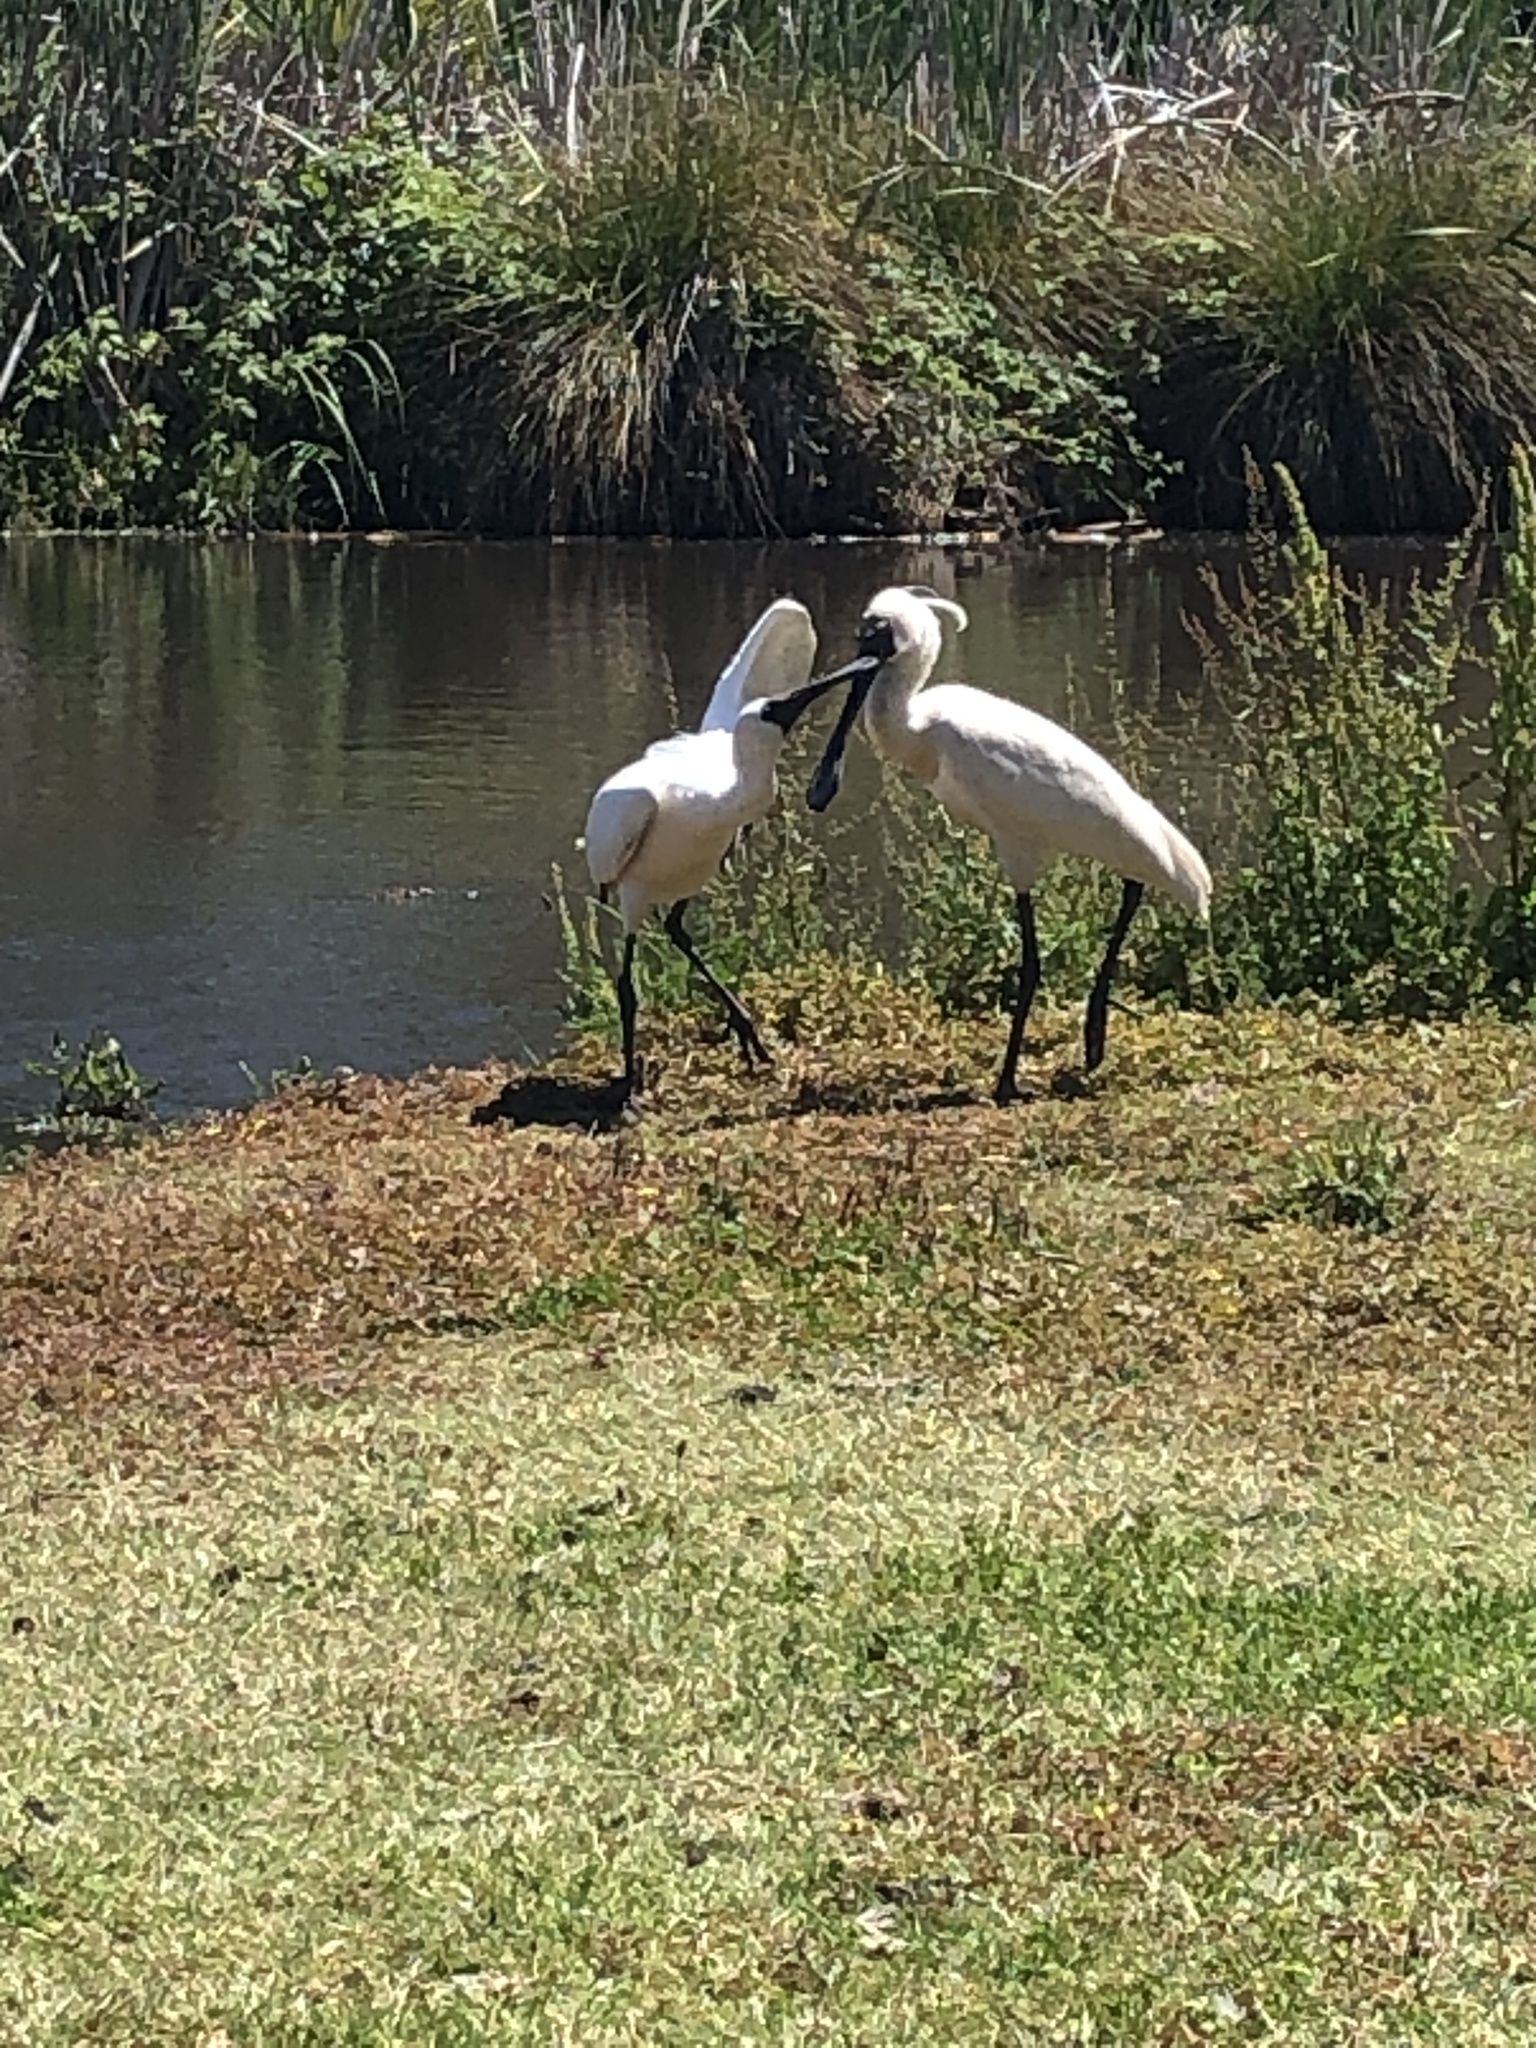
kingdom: Animalia
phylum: Chordata
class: Aves
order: Pelecaniformes
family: Threskiornithidae
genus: Platalea
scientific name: Platalea regia
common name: Royal spoonbill
